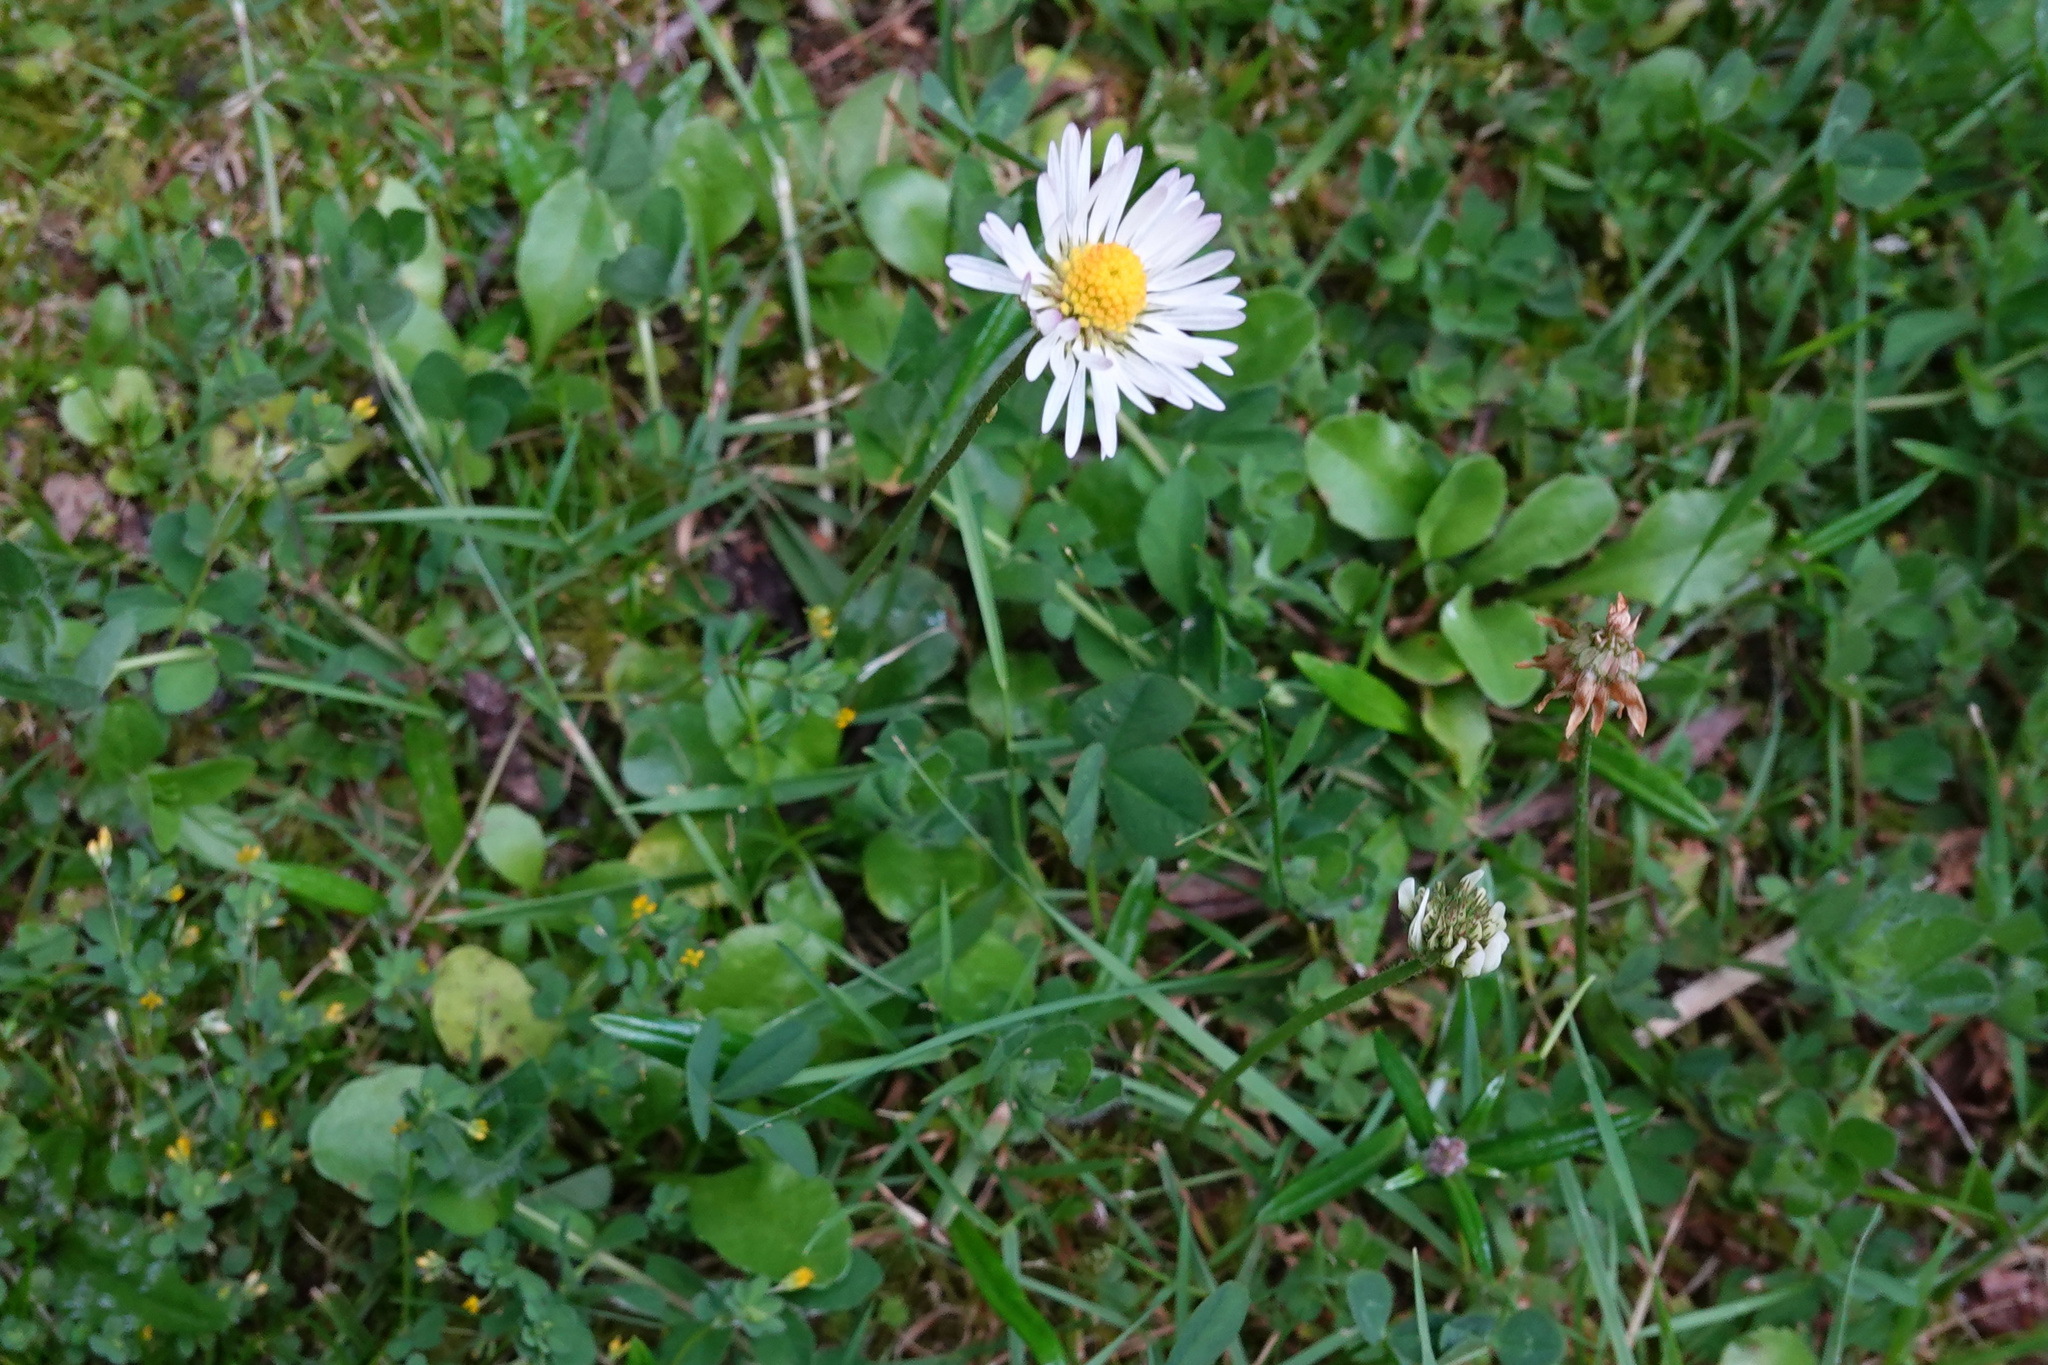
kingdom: Plantae
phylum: Tracheophyta
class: Magnoliopsida
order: Asterales
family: Asteraceae
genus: Bellis
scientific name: Bellis perennis
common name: Lawndaisy
